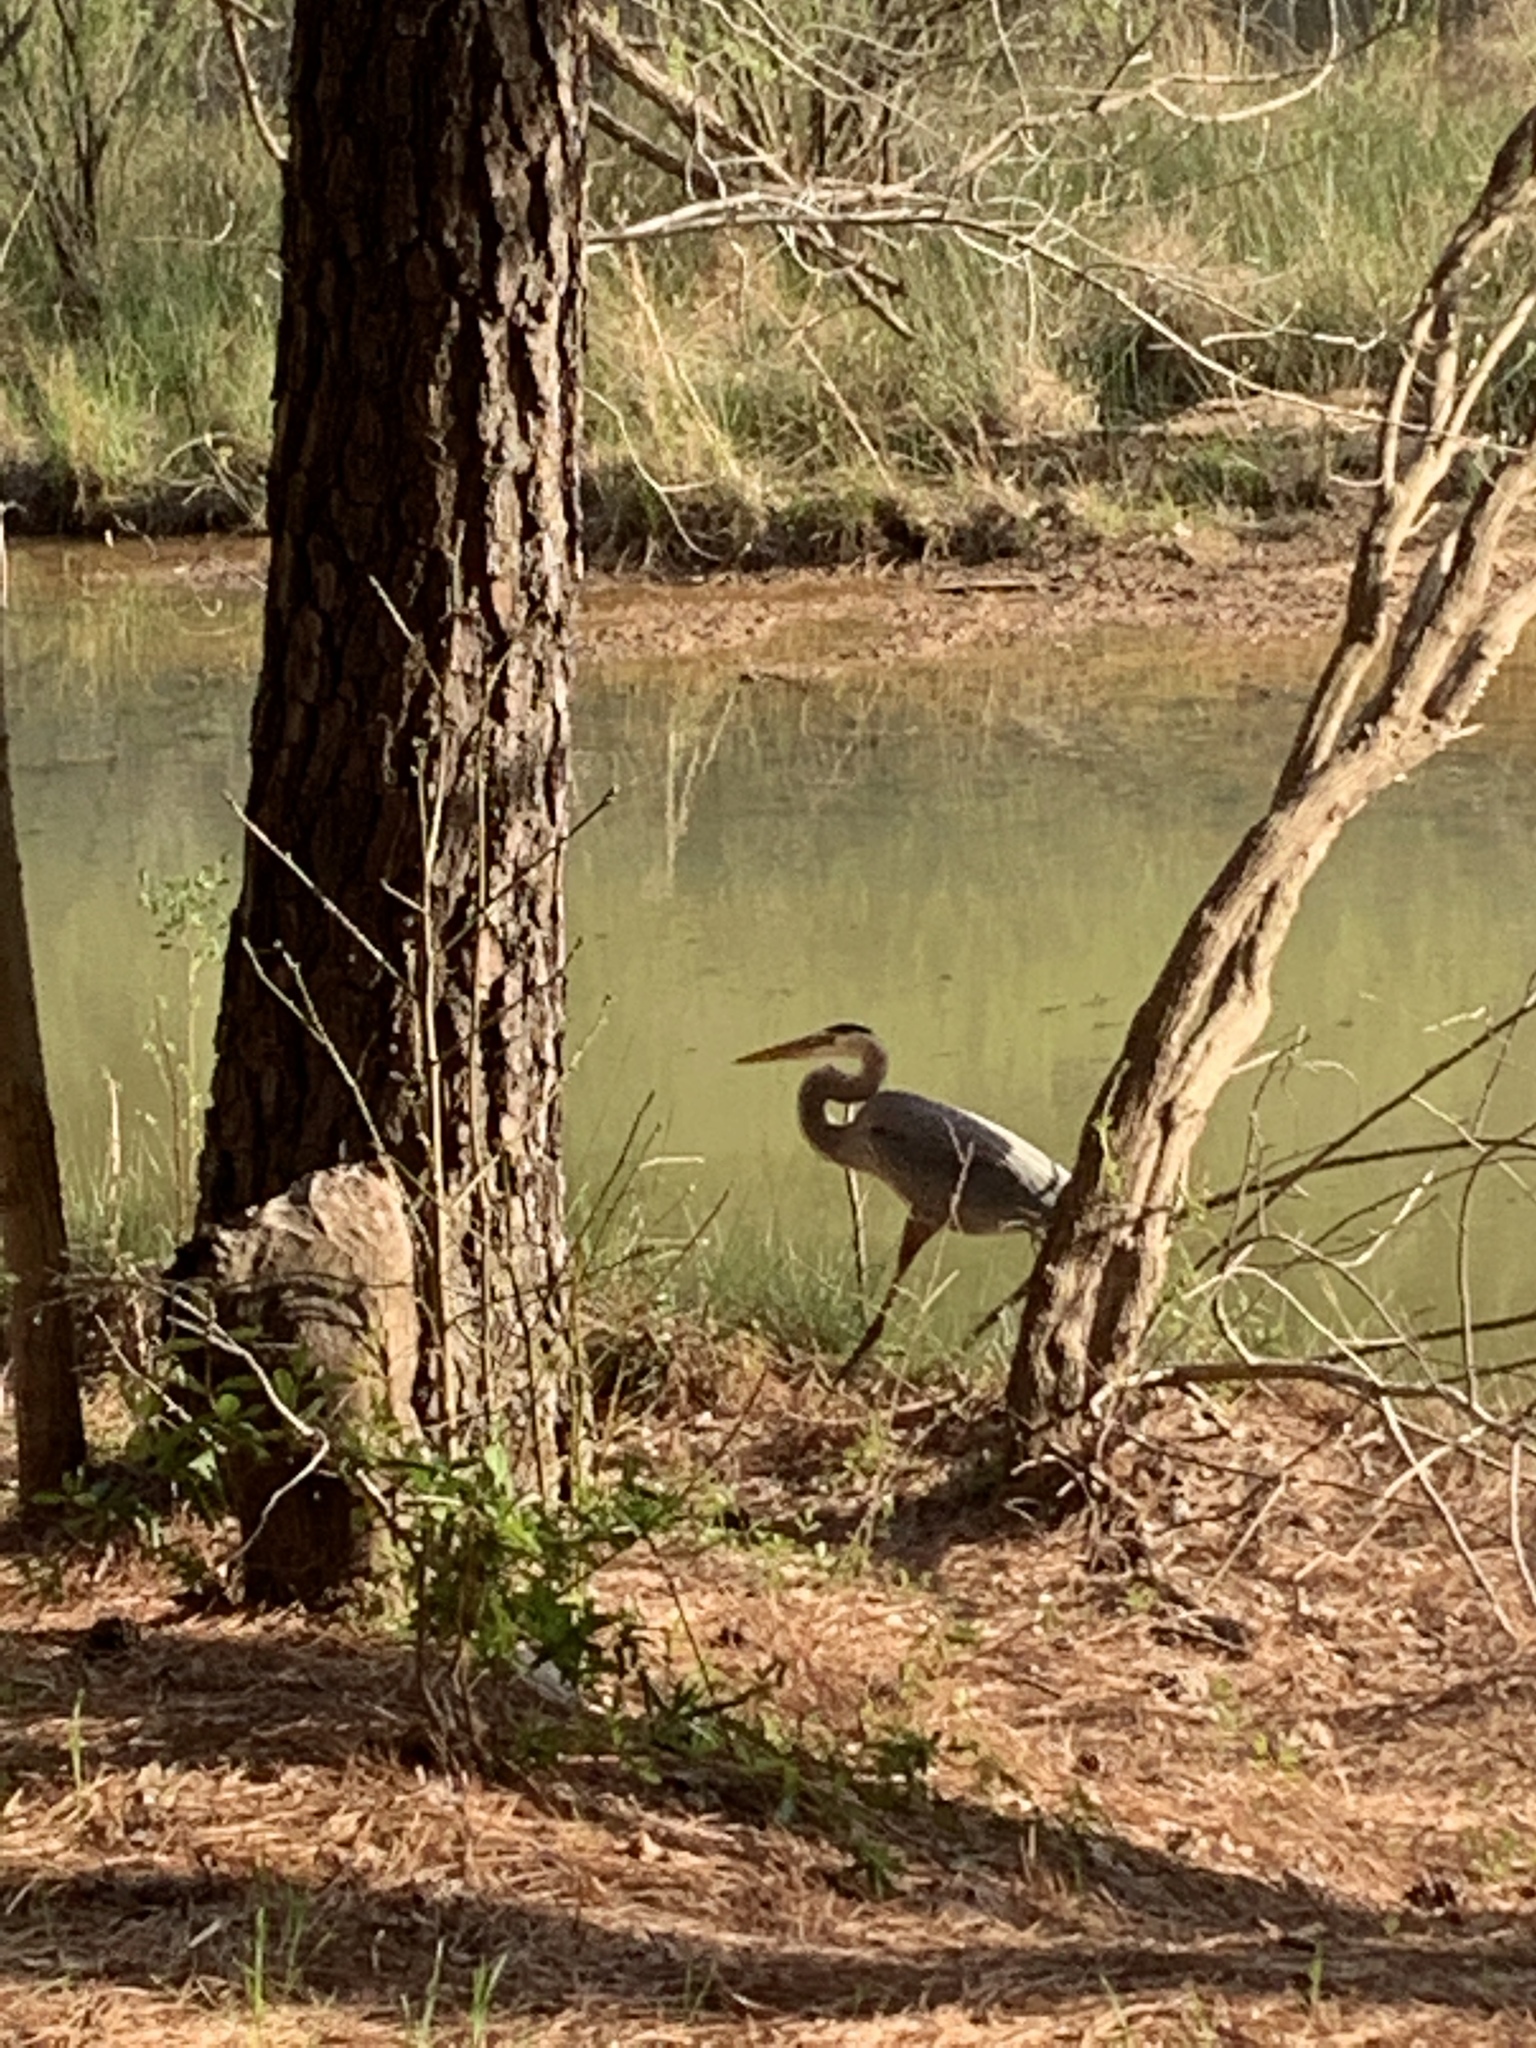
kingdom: Animalia
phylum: Chordata
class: Aves
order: Pelecaniformes
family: Ardeidae
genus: Ardea
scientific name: Ardea herodias
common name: Great blue heron
